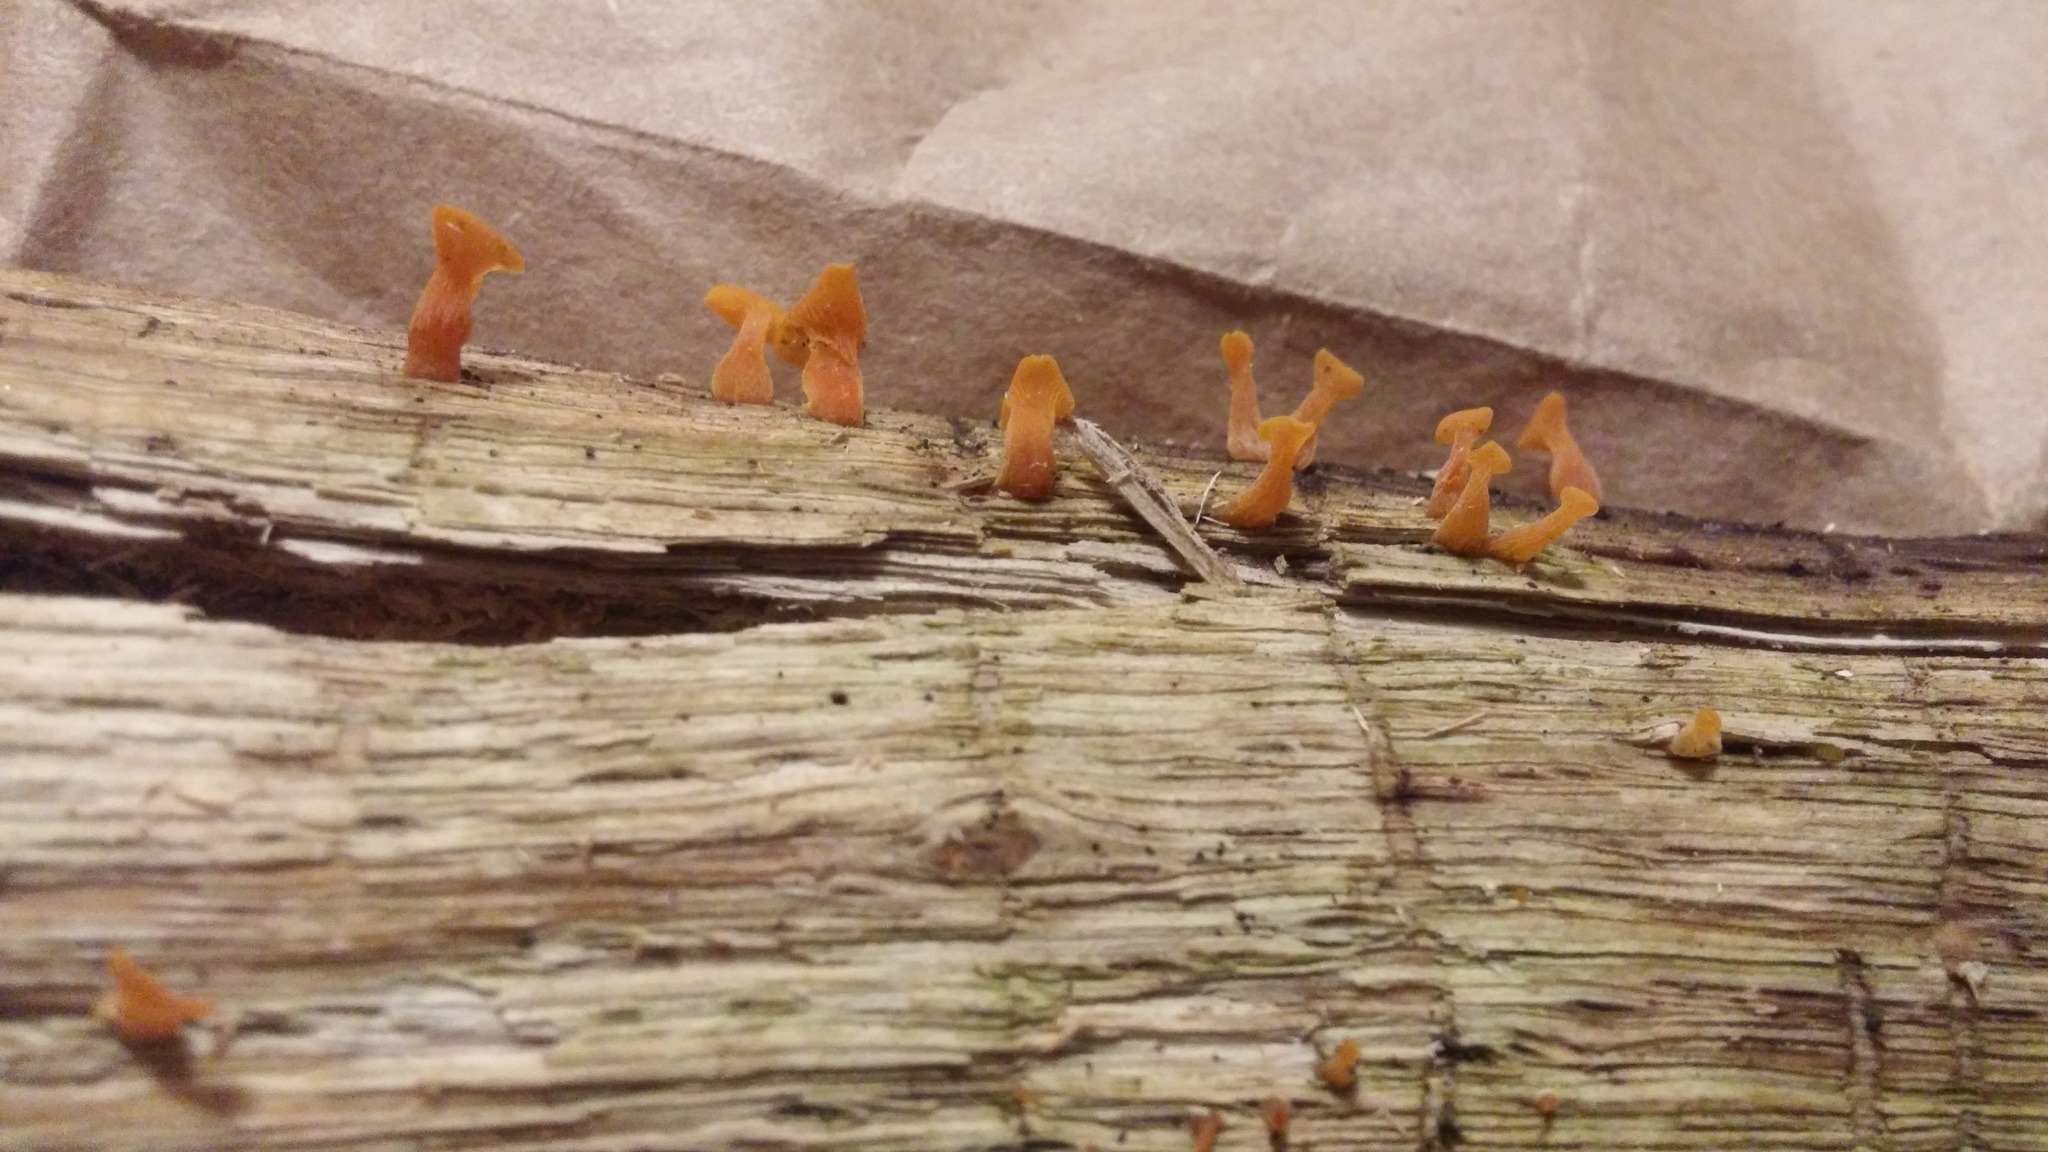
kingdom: Fungi
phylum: Basidiomycota
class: Dacrymycetes
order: Dacrymycetales
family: Dacrymycetaceae
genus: Guepiniopsis
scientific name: Guepiniopsis buccina
